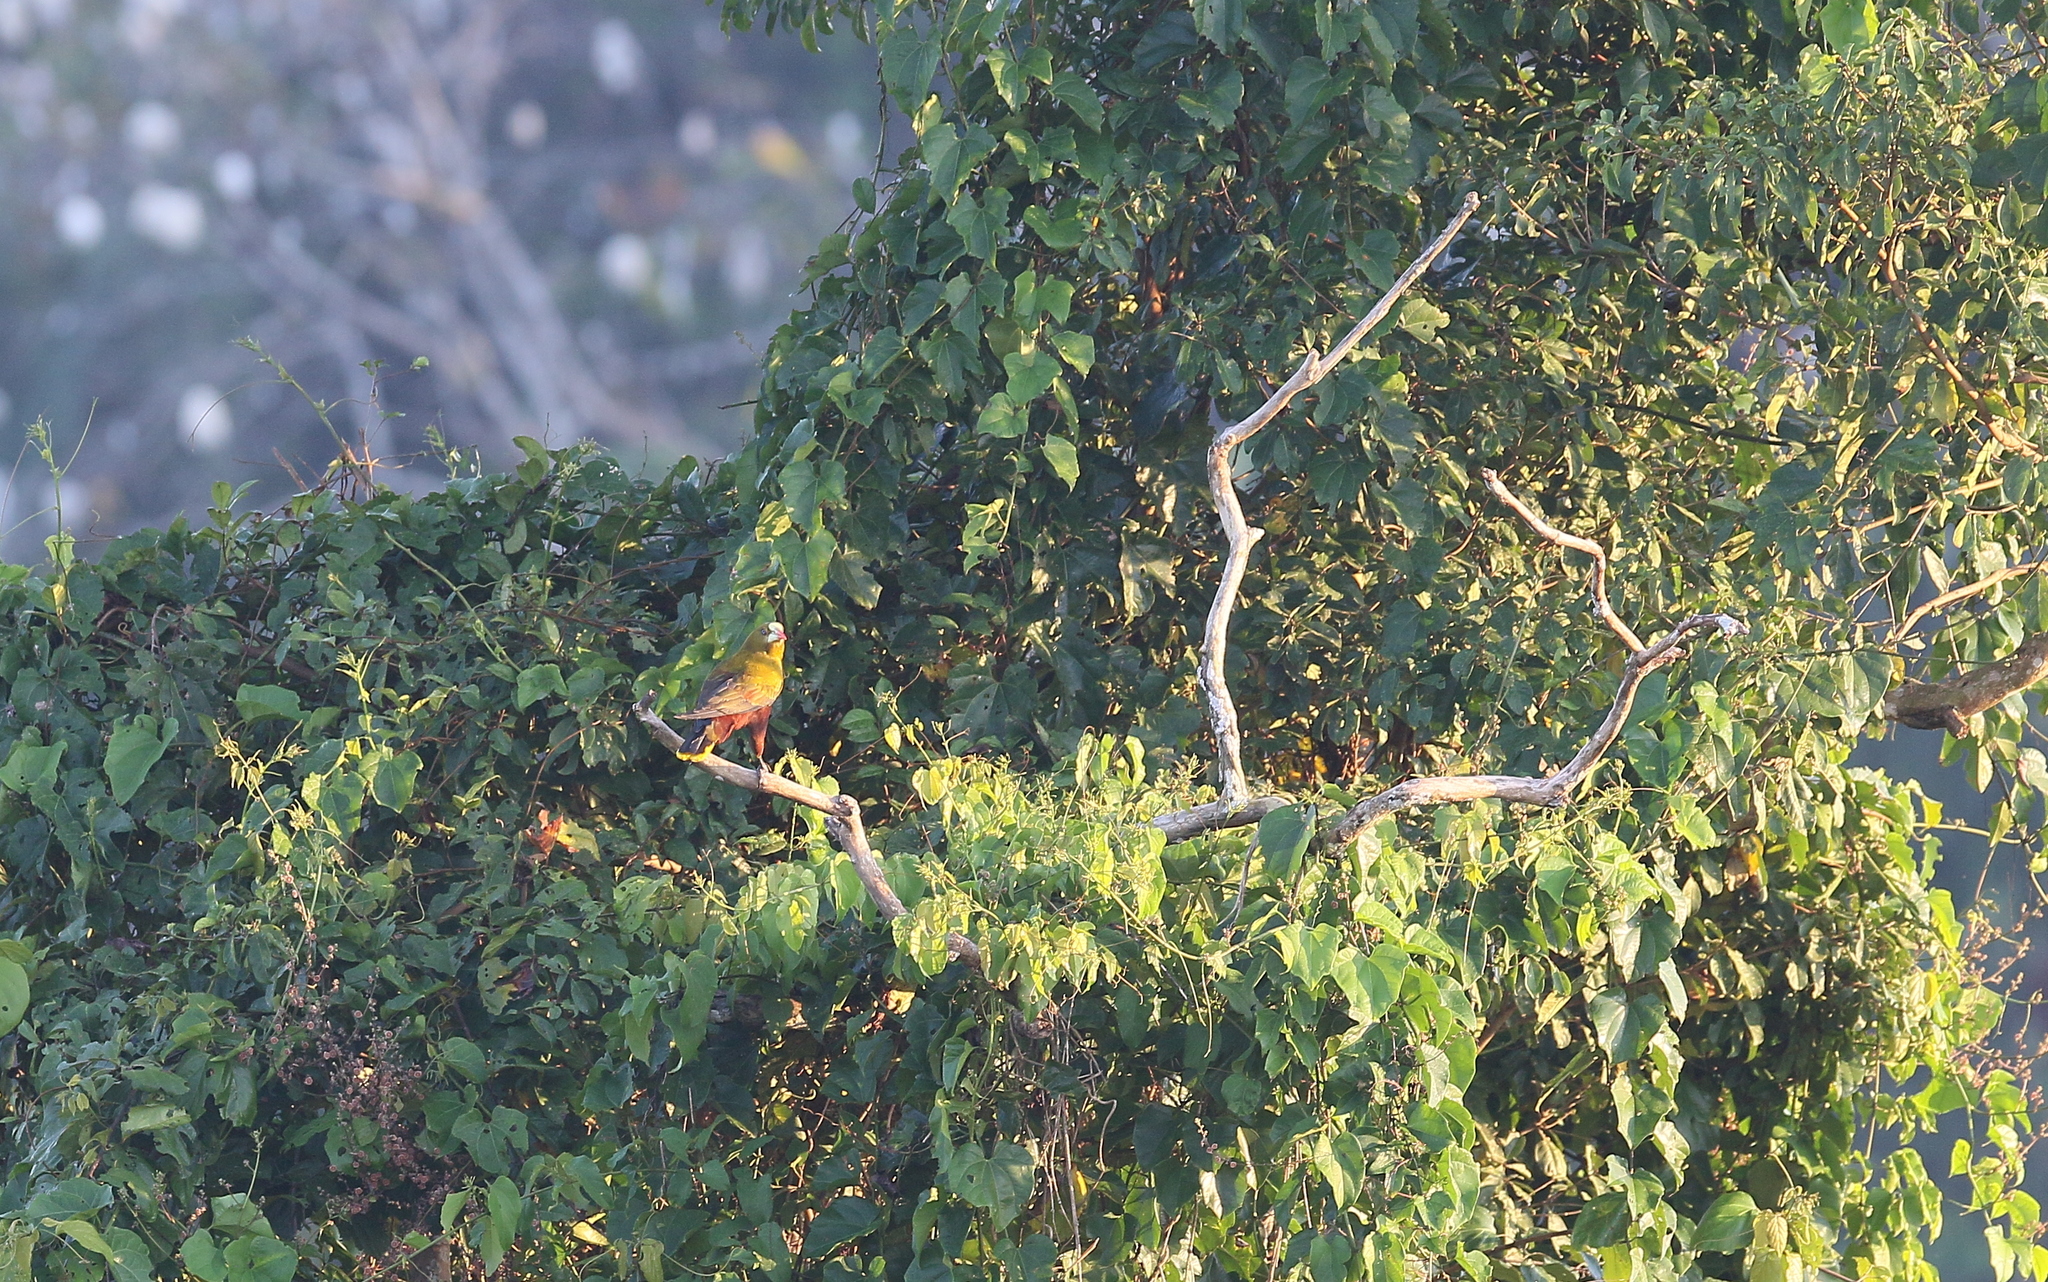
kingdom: Animalia
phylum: Chordata
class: Aves
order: Passeriformes
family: Icteridae
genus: Psarocolius
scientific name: Psarocolius viridis
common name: Green oropendola
